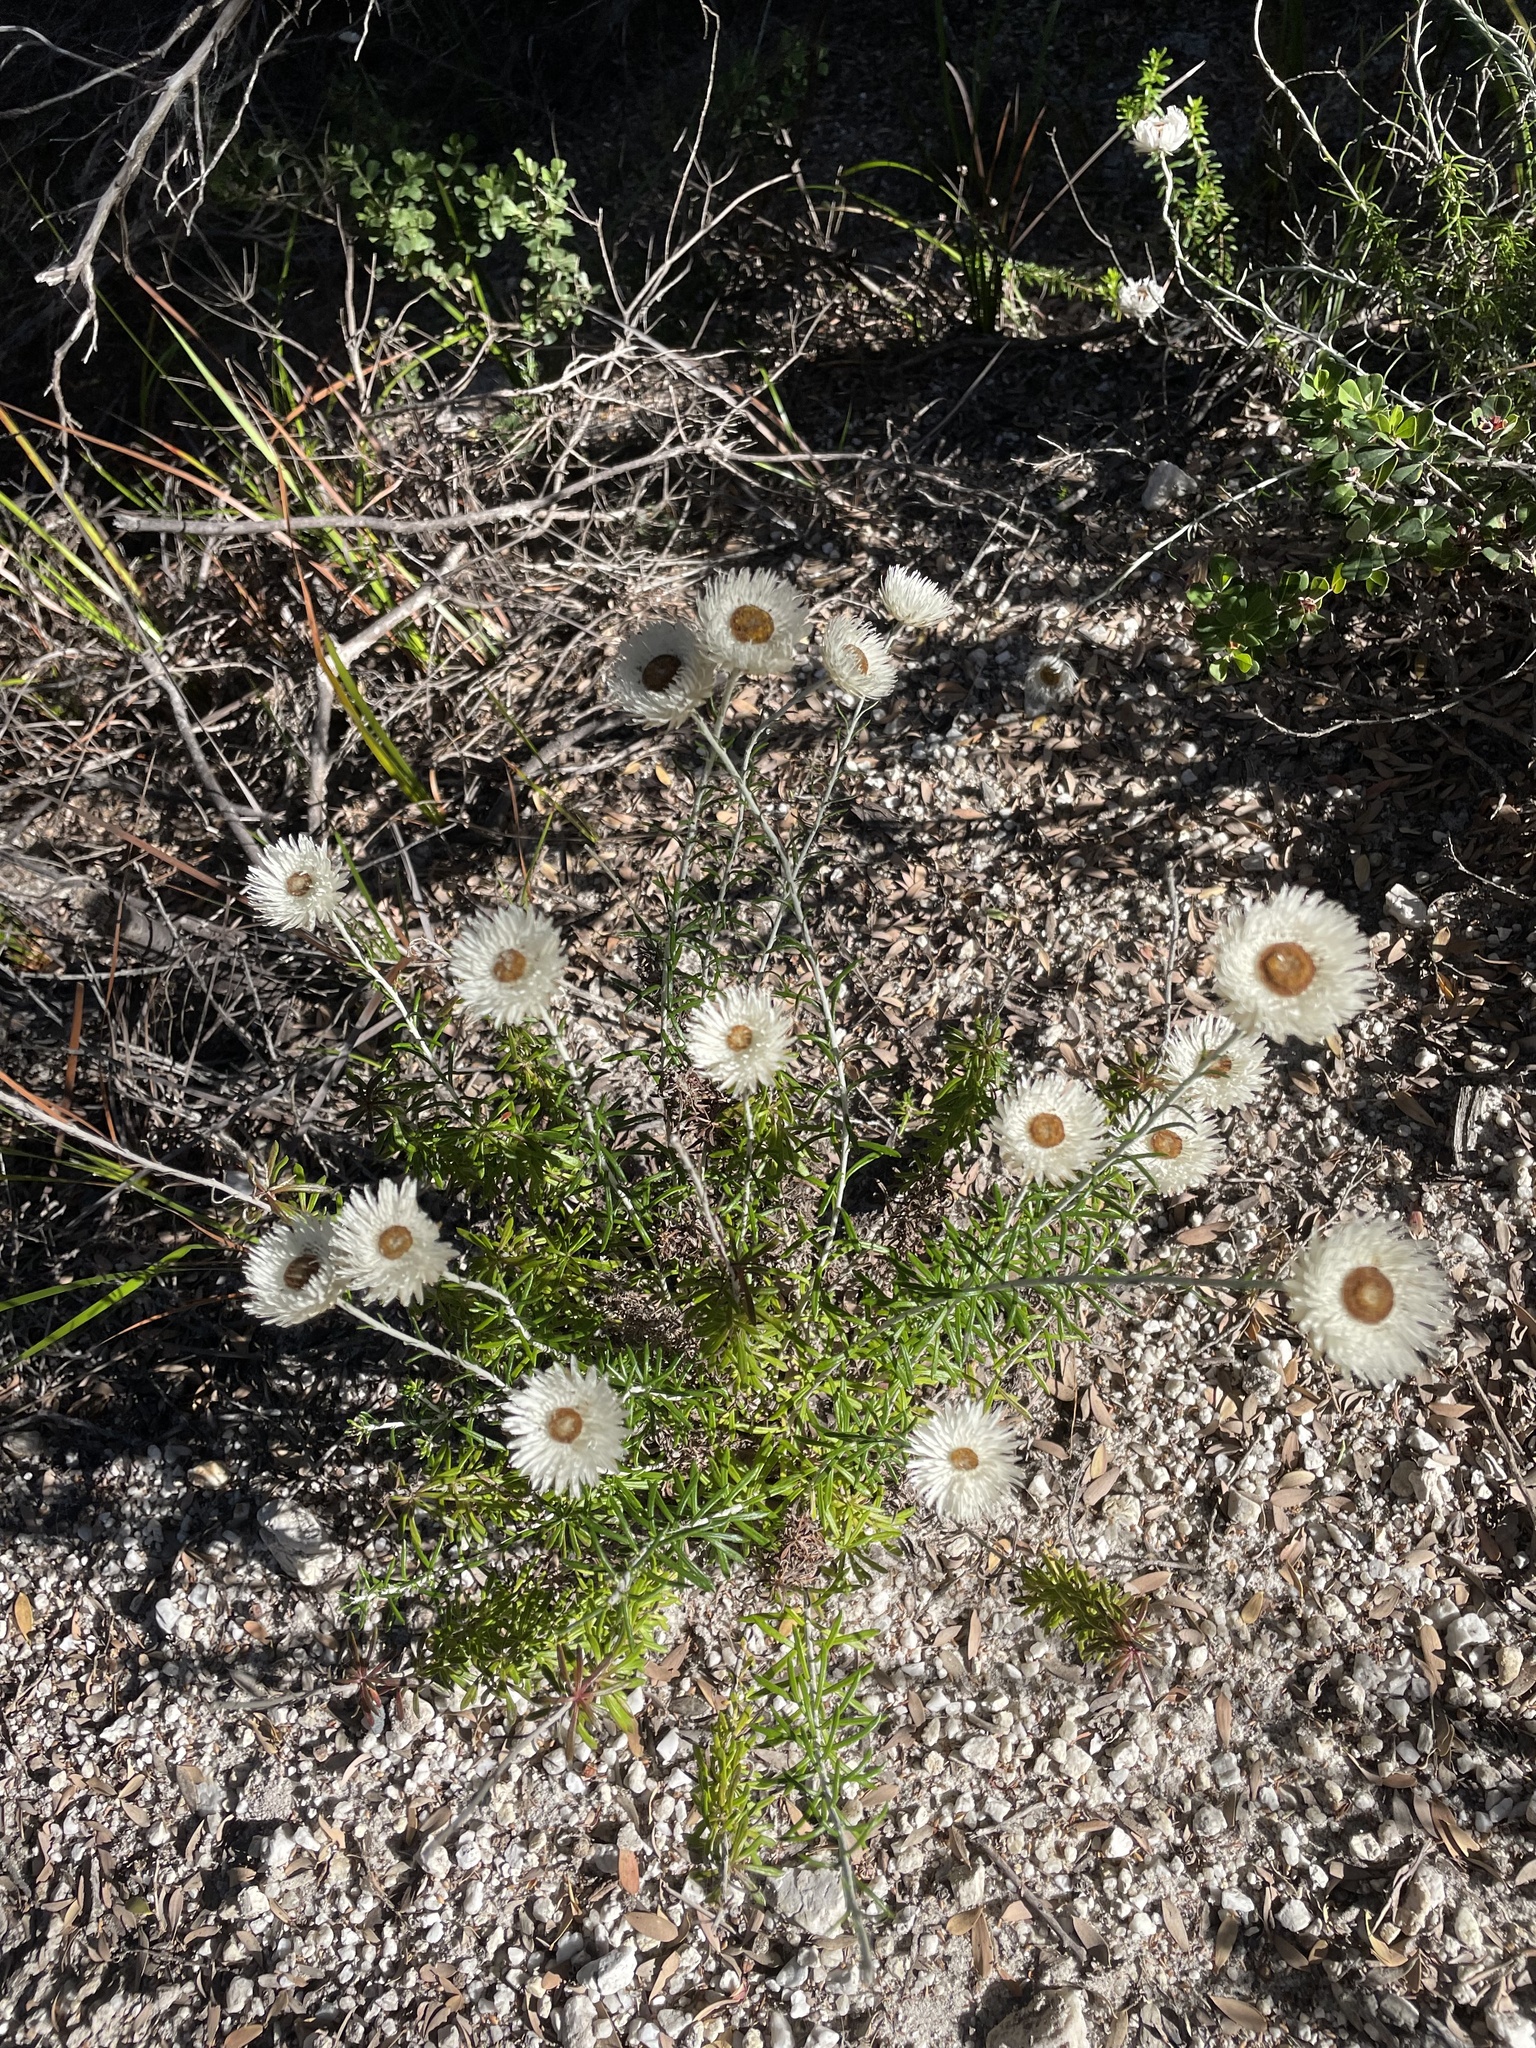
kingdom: Plantae
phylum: Tracheophyta
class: Magnoliopsida
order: Asterales
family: Asteraceae
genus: Chrysocephalum
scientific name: Chrysocephalum baxteri
